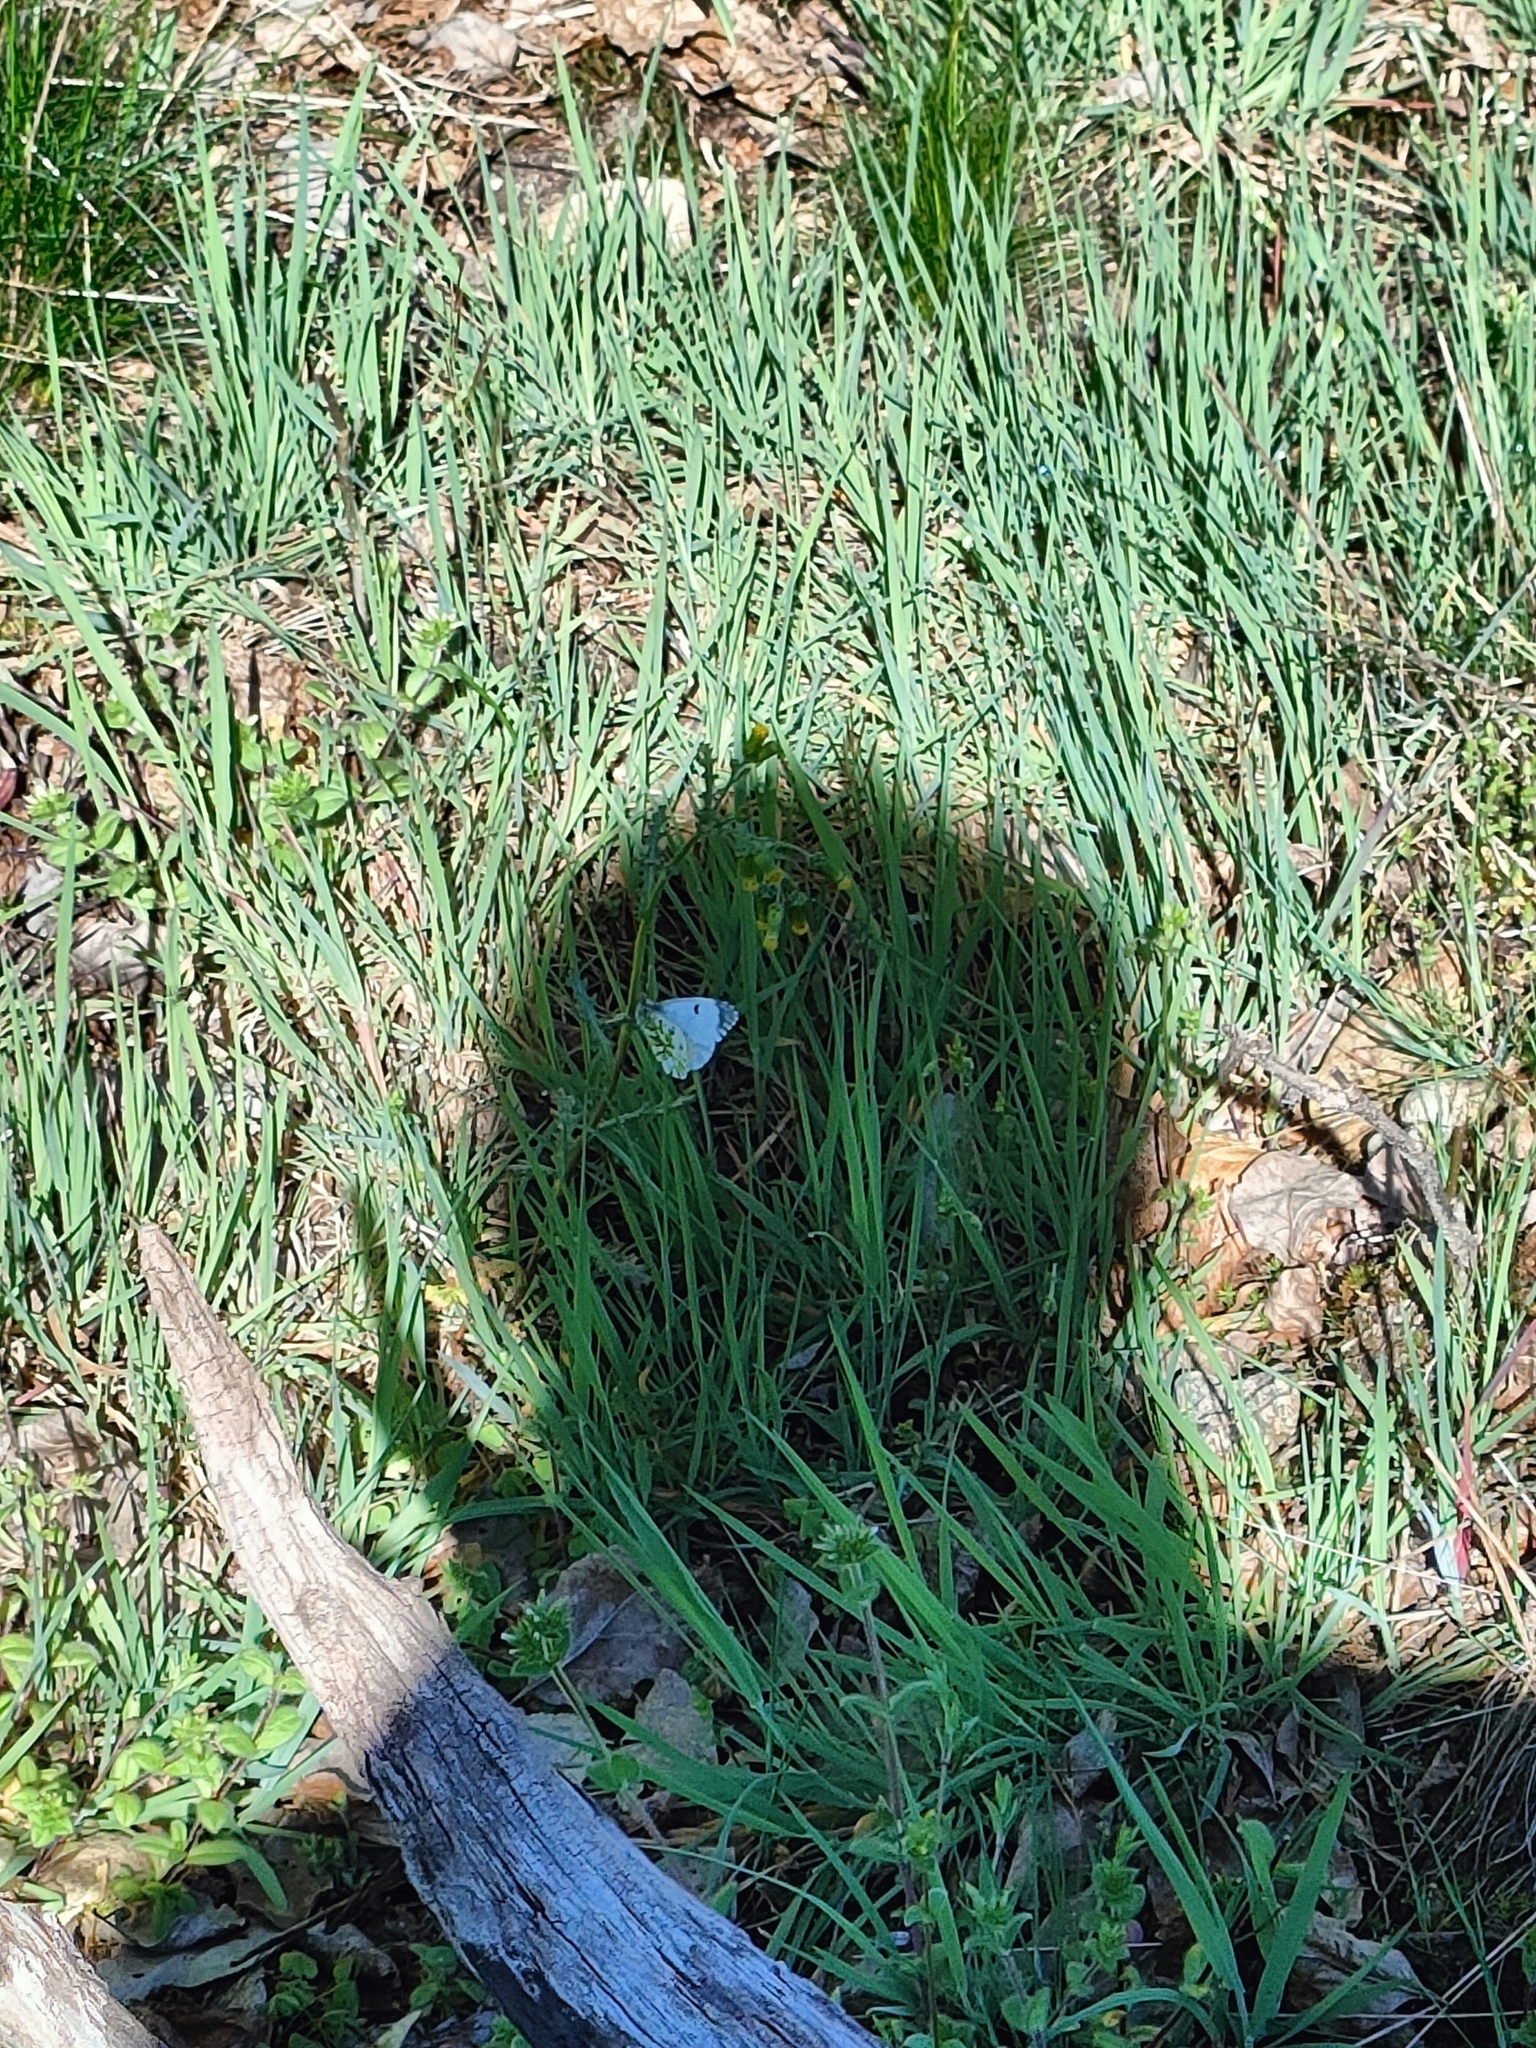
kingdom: Animalia
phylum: Arthropoda
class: Insecta
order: Lepidoptera
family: Pieridae
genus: Anthocharis
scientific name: Anthocharis cardamines
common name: Orange-tip
